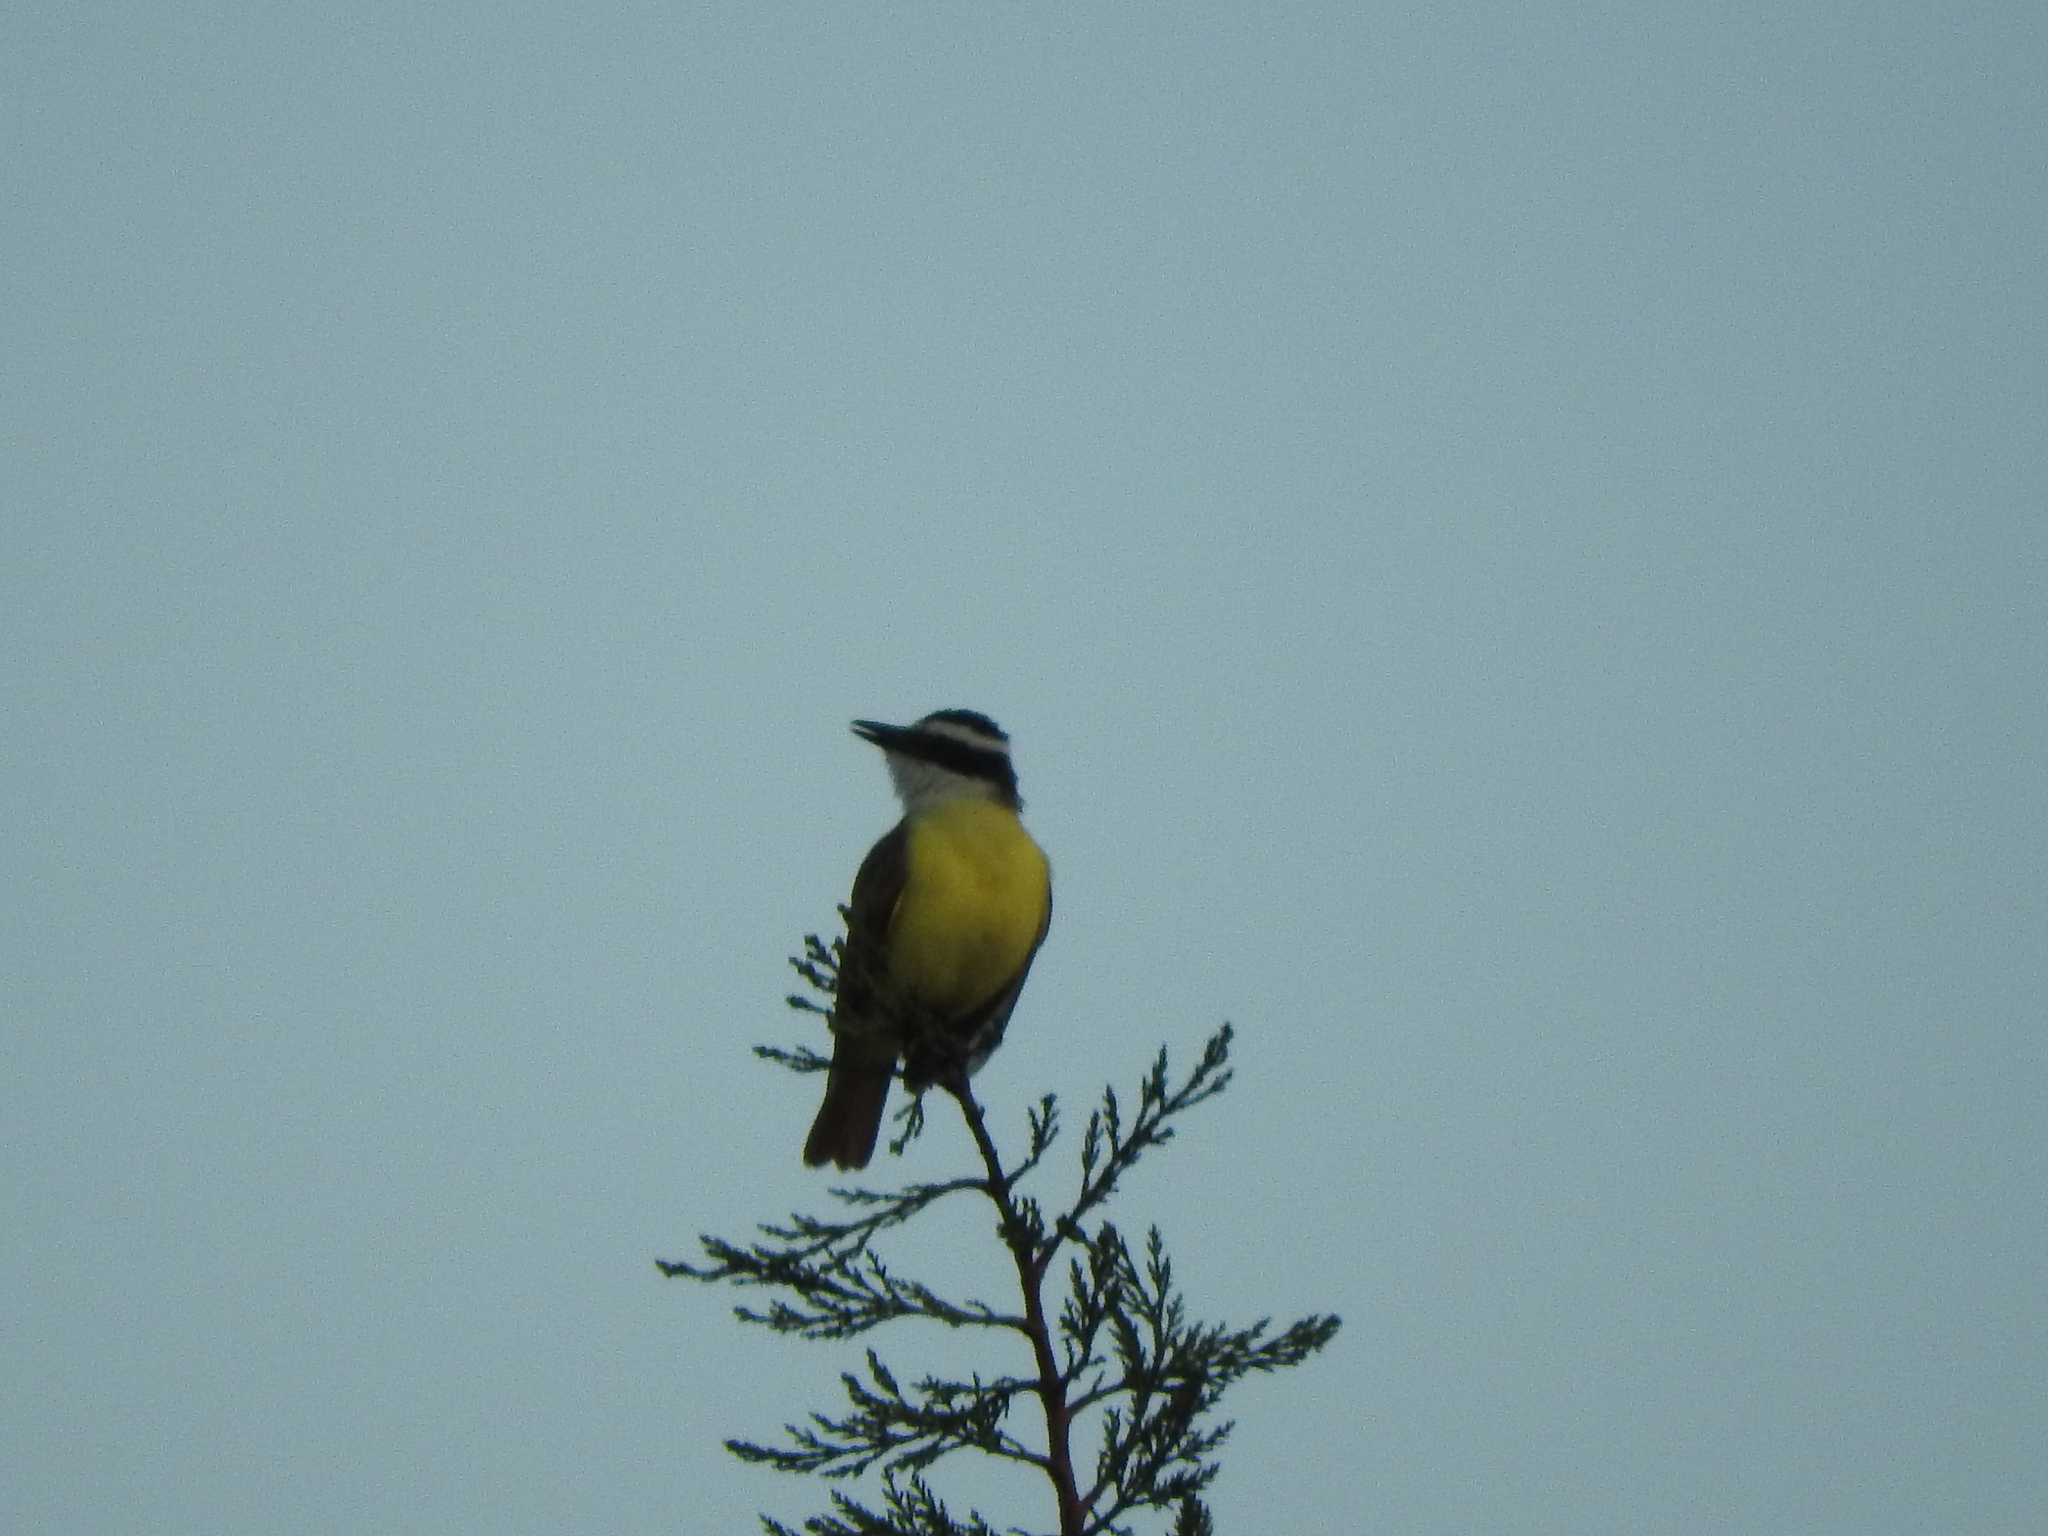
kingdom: Animalia
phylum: Chordata
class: Aves
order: Passeriformes
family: Tyrannidae
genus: Pitangus
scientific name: Pitangus sulphuratus
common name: Great kiskadee
